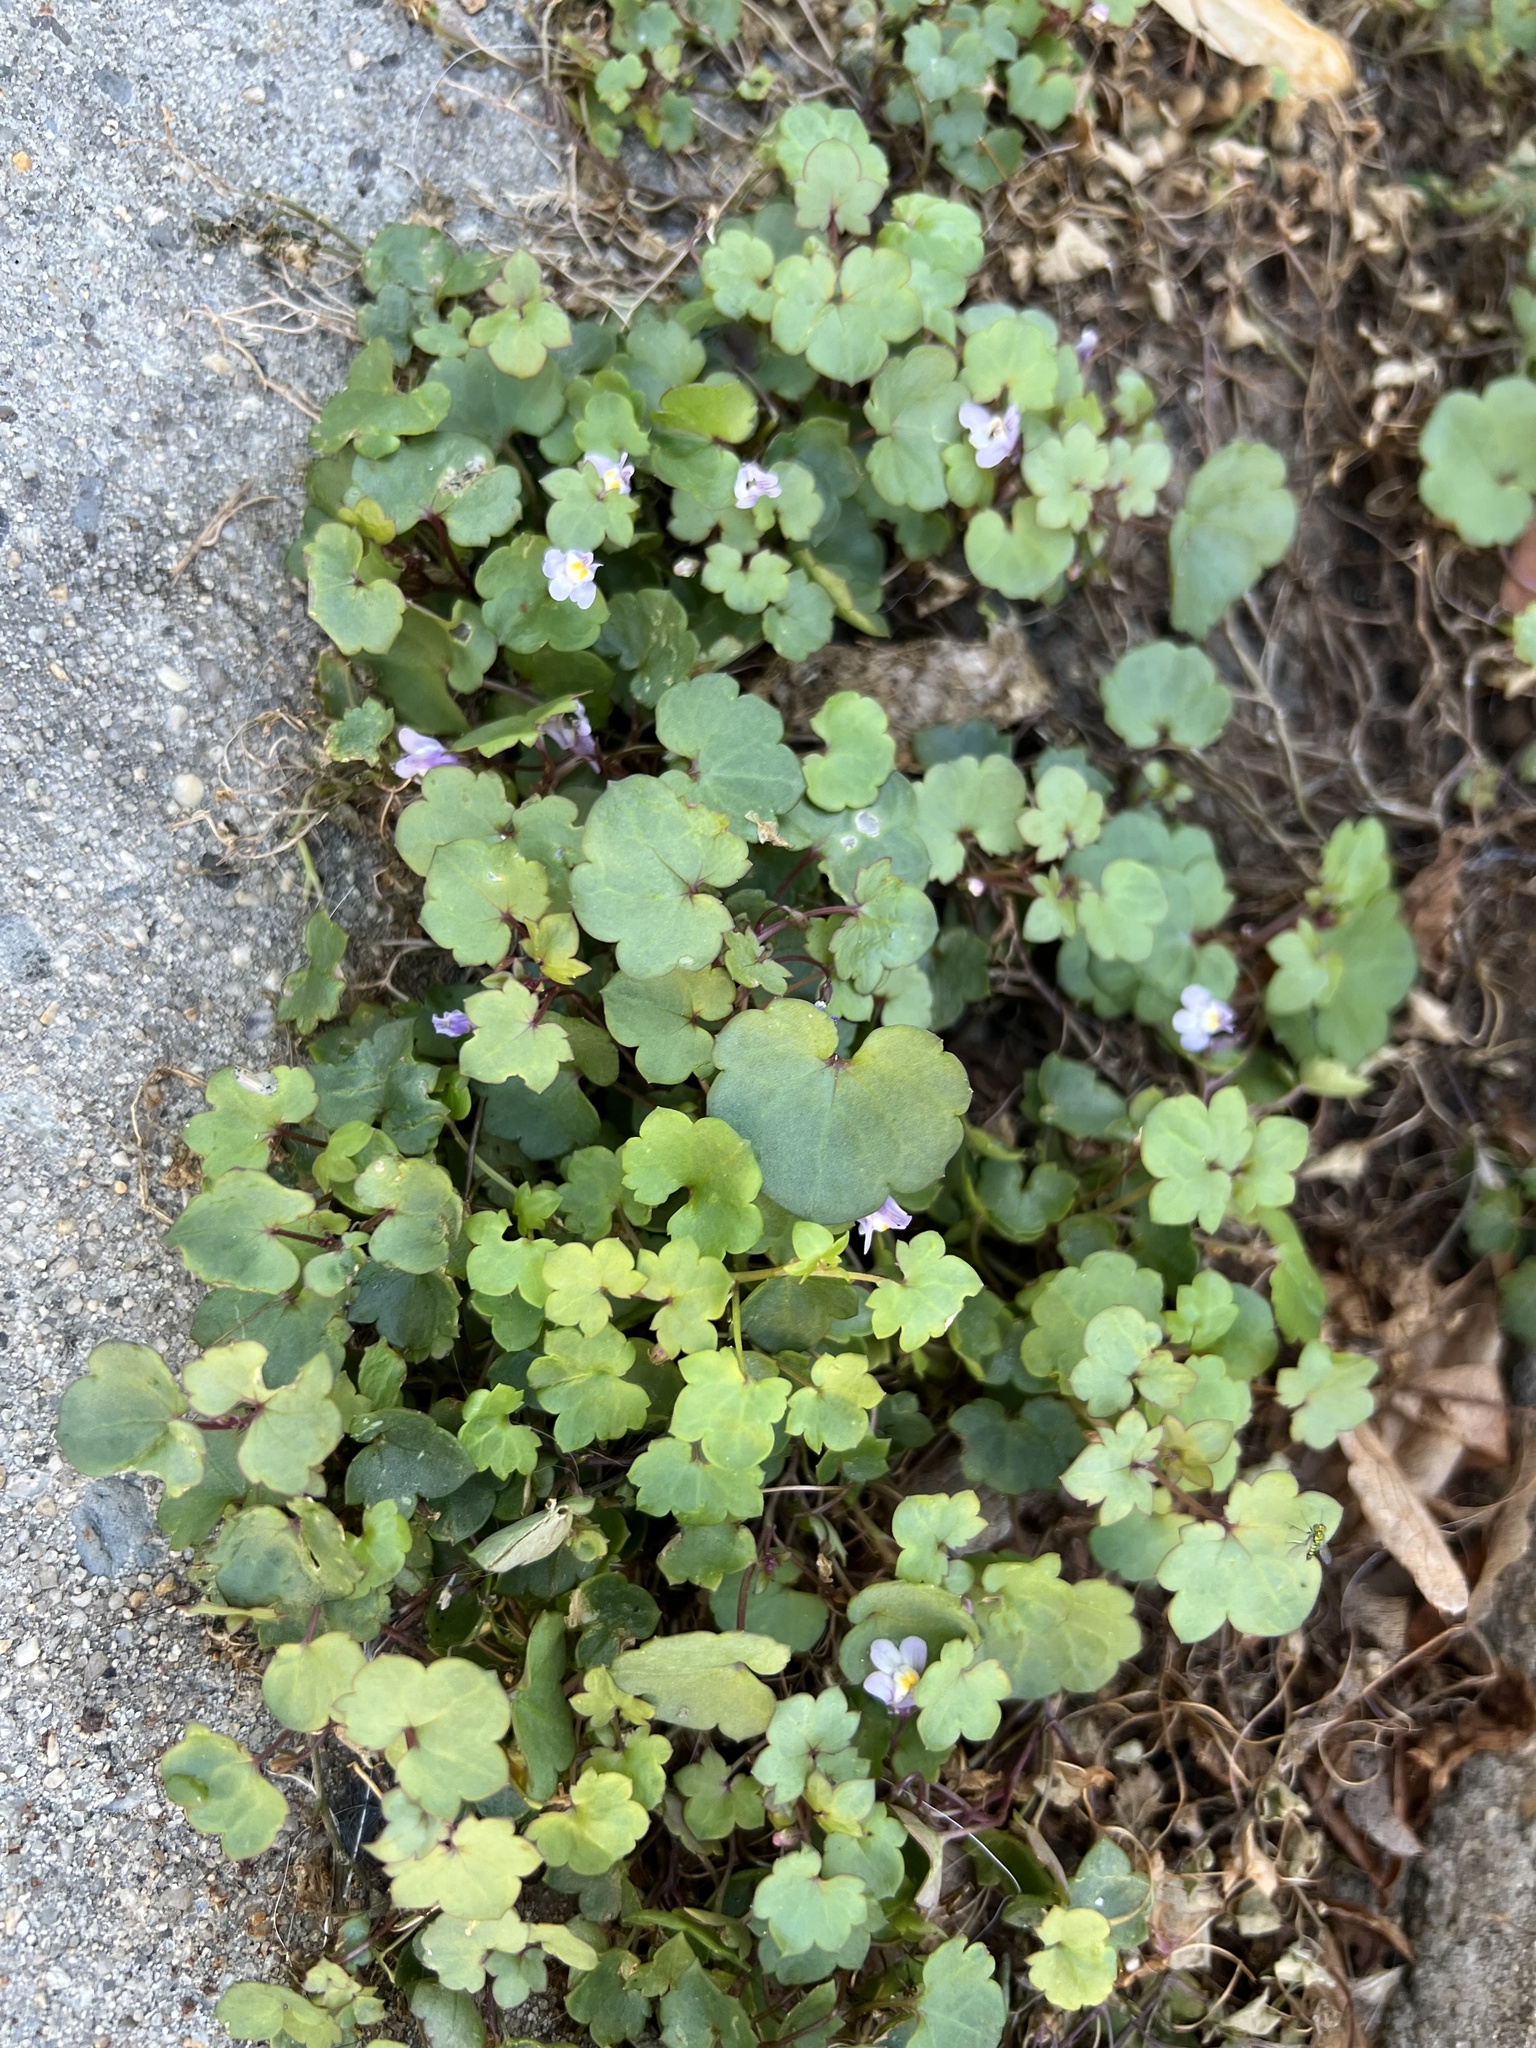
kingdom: Plantae
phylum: Tracheophyta
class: Magnoliopsida
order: Lamiales
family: Plantaginaceae
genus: Cymbalaria
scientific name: Cymbalaria muralis
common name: Ivy-leaved toadflax
